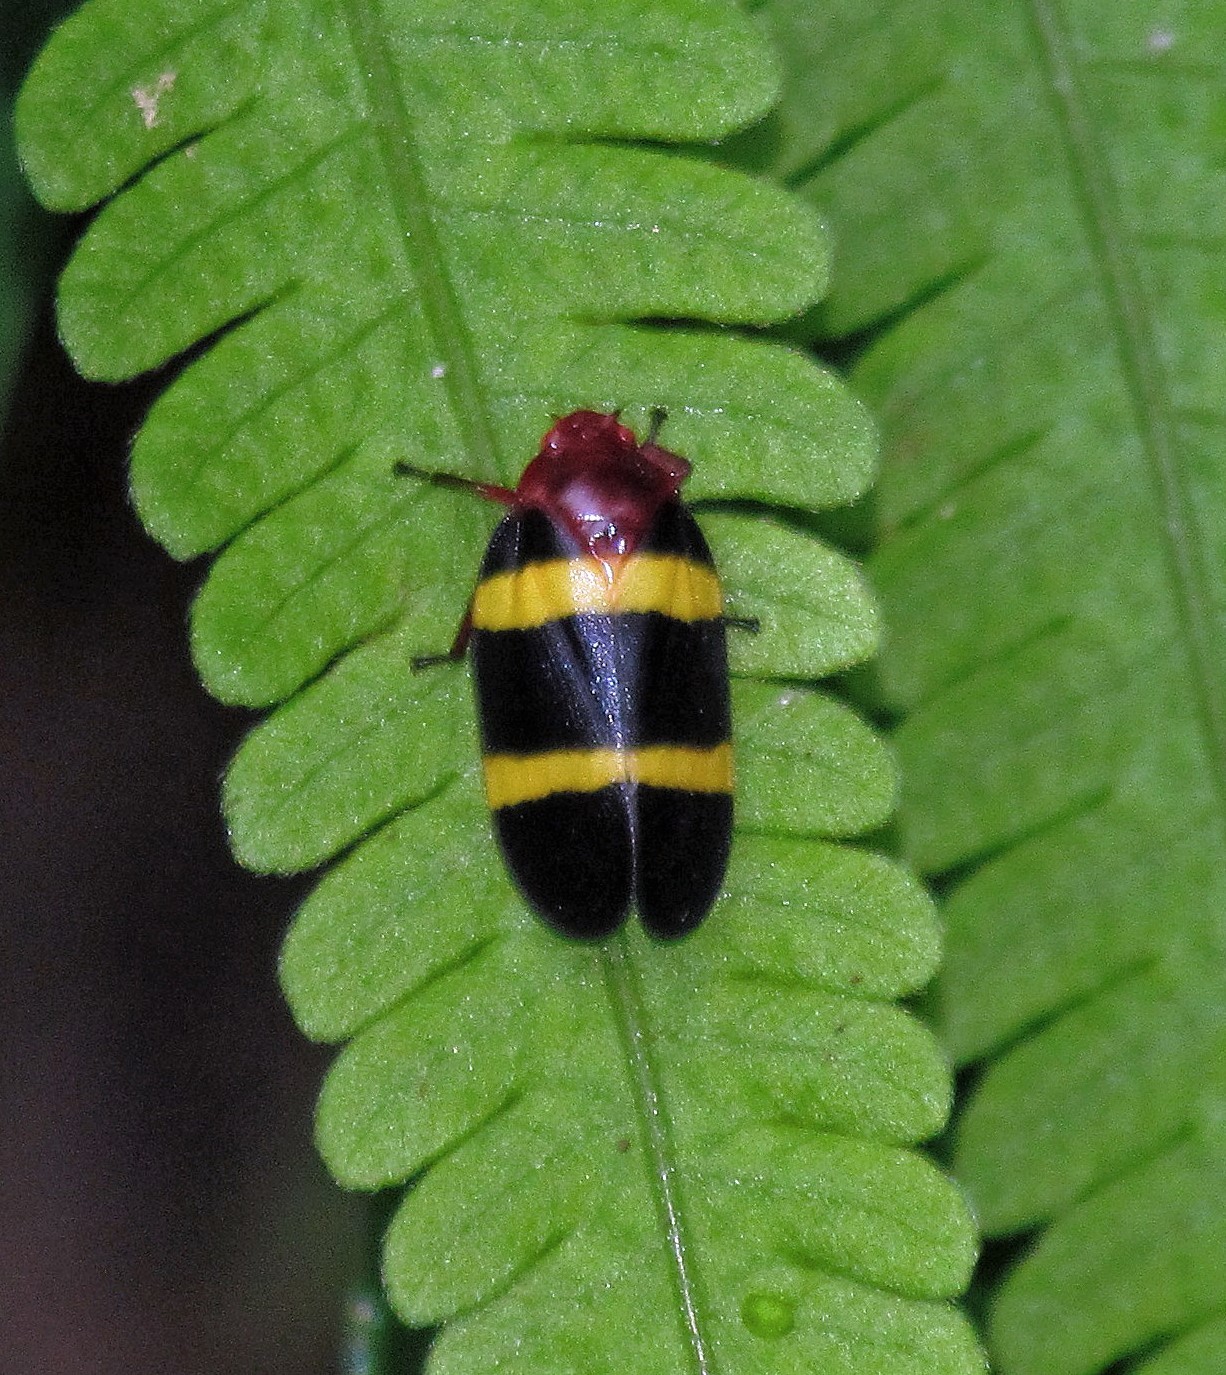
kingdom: Animalia
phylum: Arthropoda
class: Insecta
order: Hemiptera
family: Cercopidae
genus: Sphenorhina
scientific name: Sphenorhina rubra
